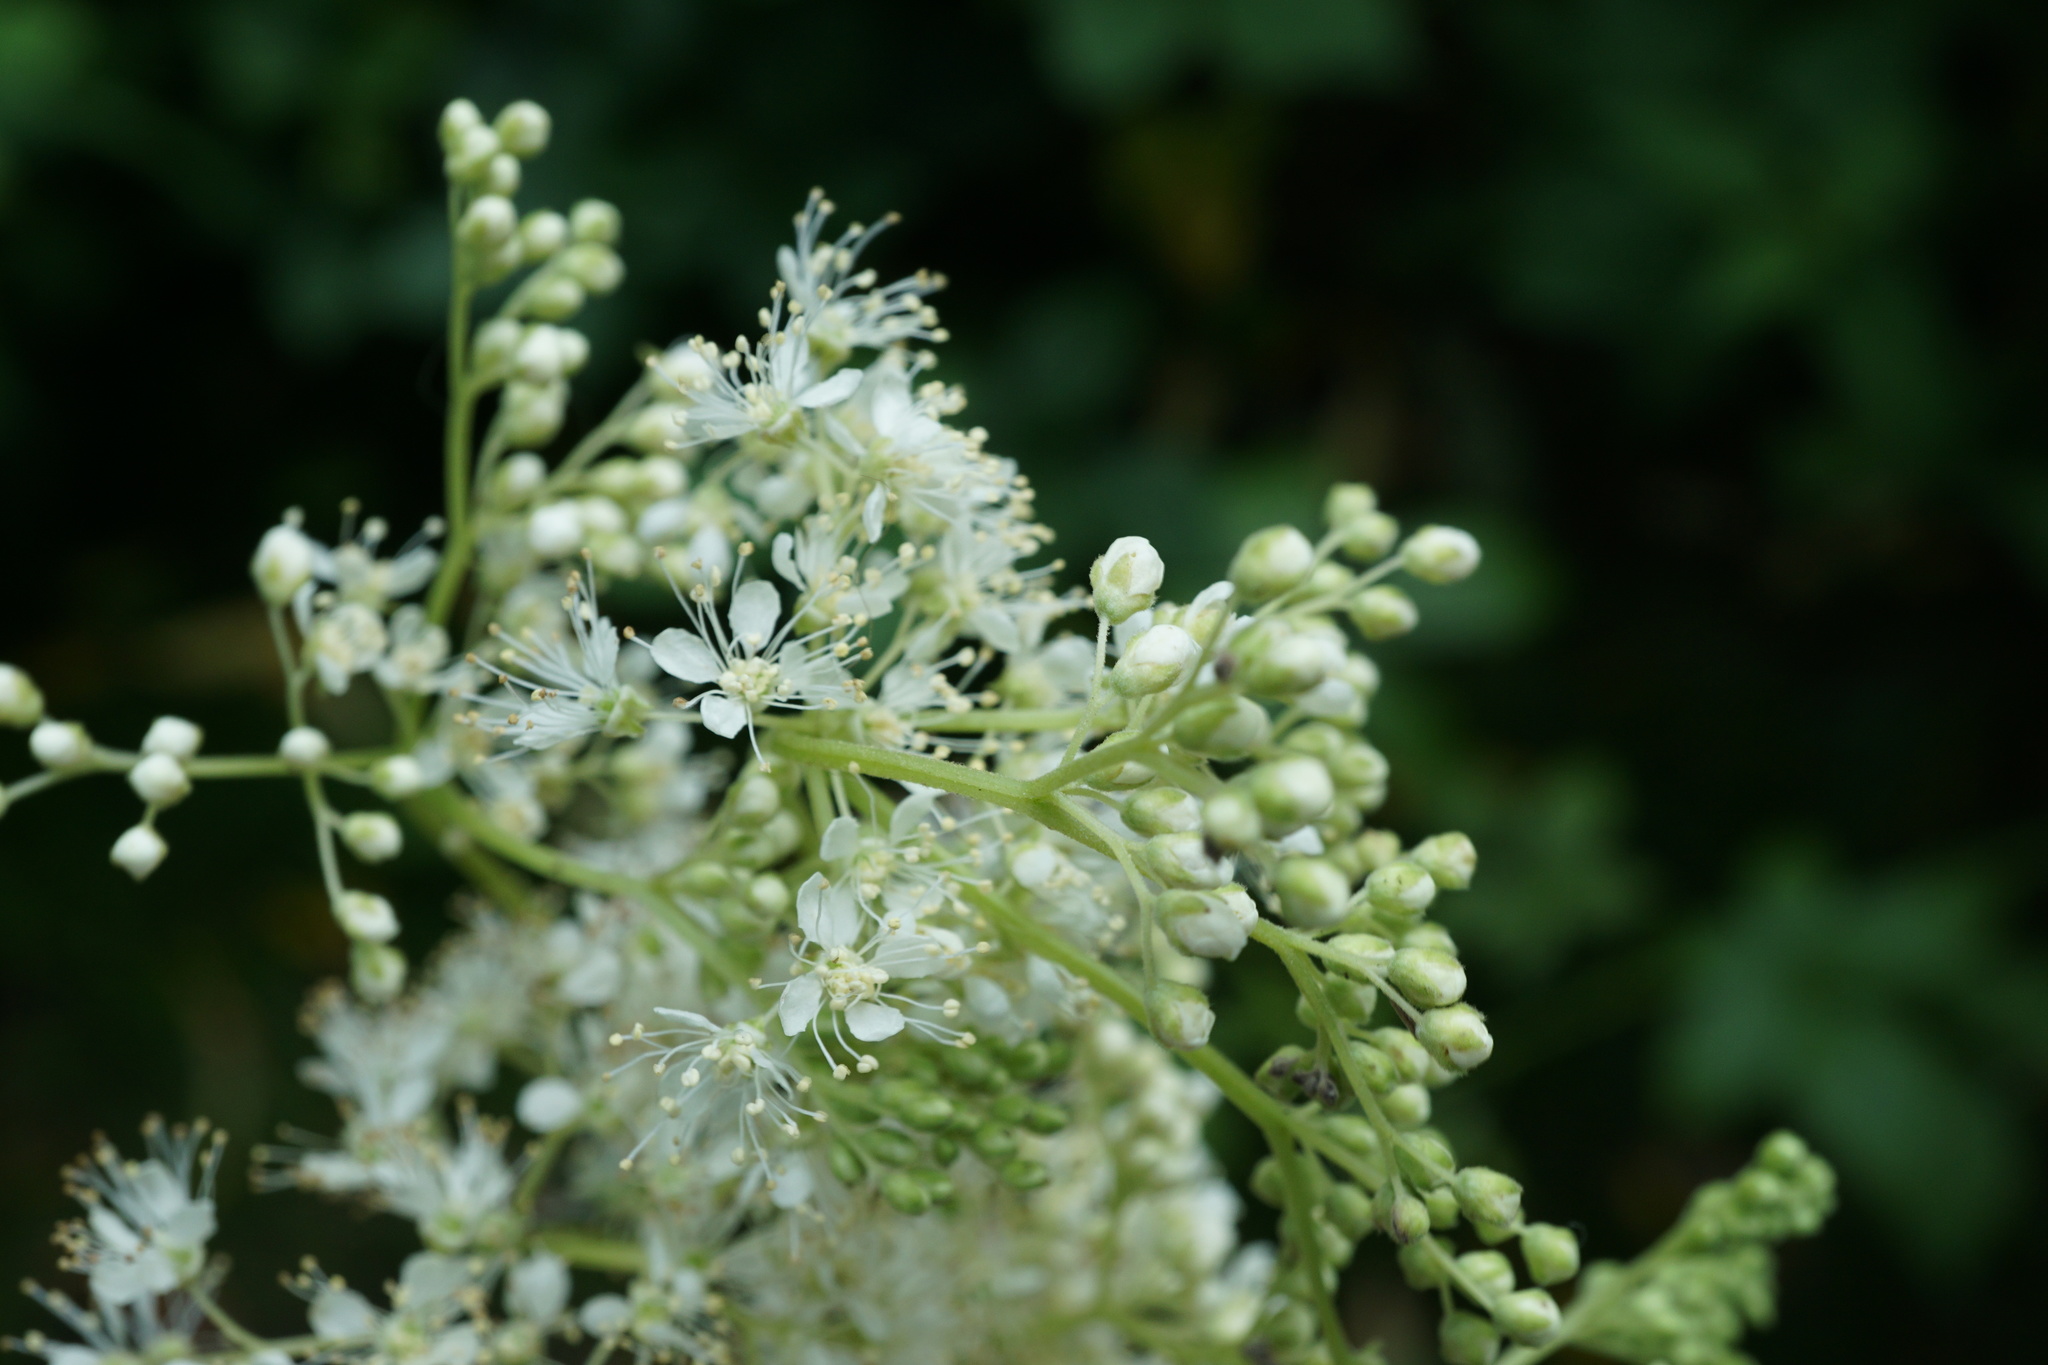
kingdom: Plantae
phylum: Tracheophyta
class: Magnoliopsida
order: Rosales
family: Rosaceae
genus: Filipendula
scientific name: Filipendula ulmaria
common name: Meadowsweet
